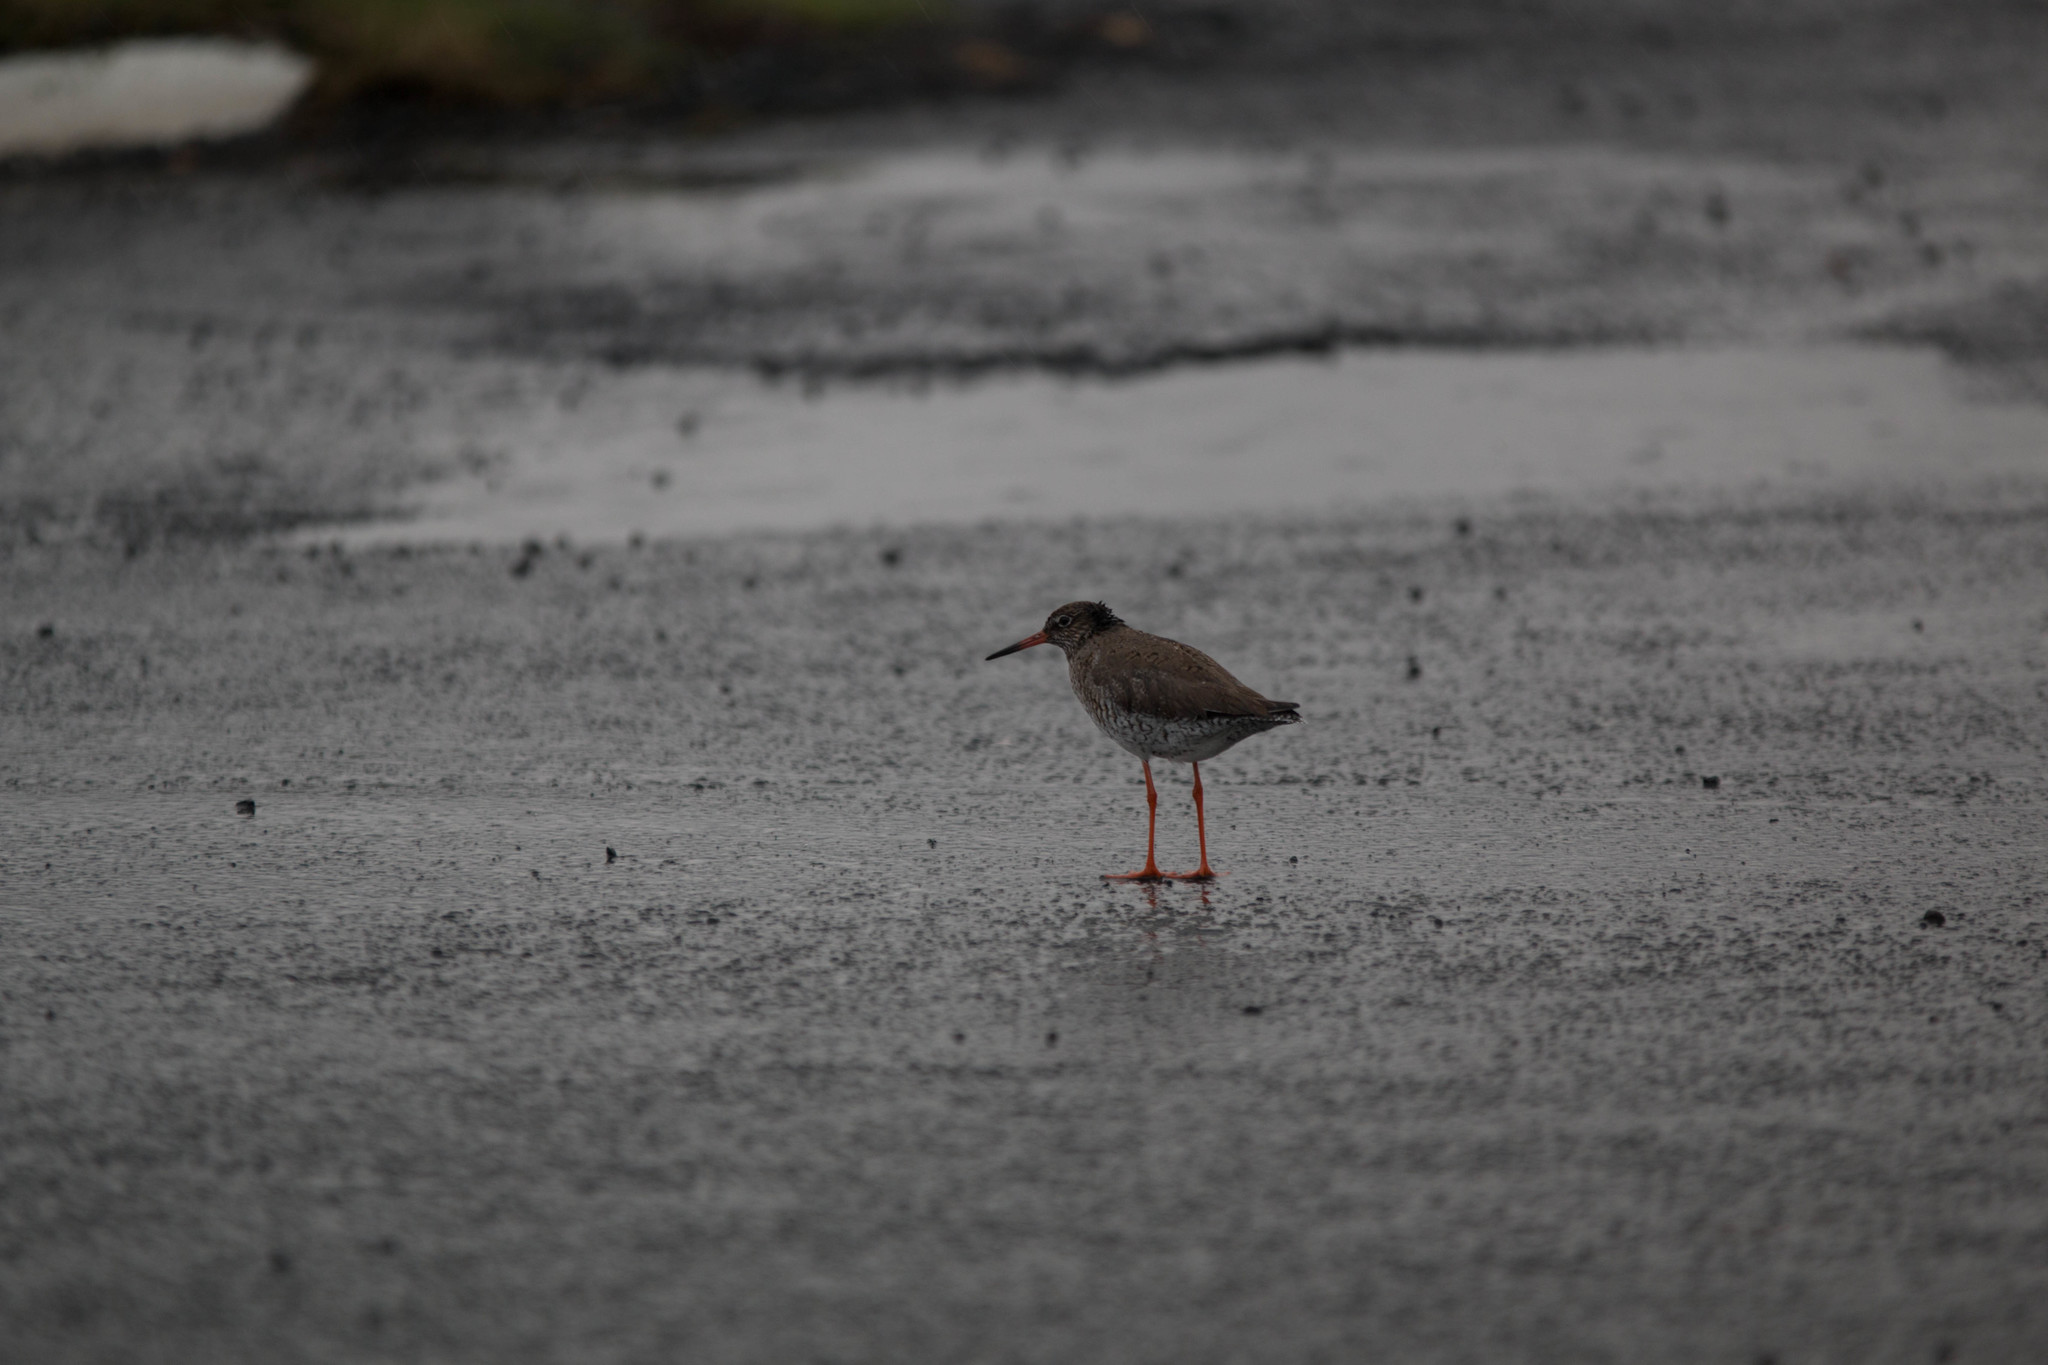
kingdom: Animalia
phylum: Chordata
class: Aves
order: Charadriiformes
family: Scolopacidae
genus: Tringa
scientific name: Tringa totanus
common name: Common redshank
